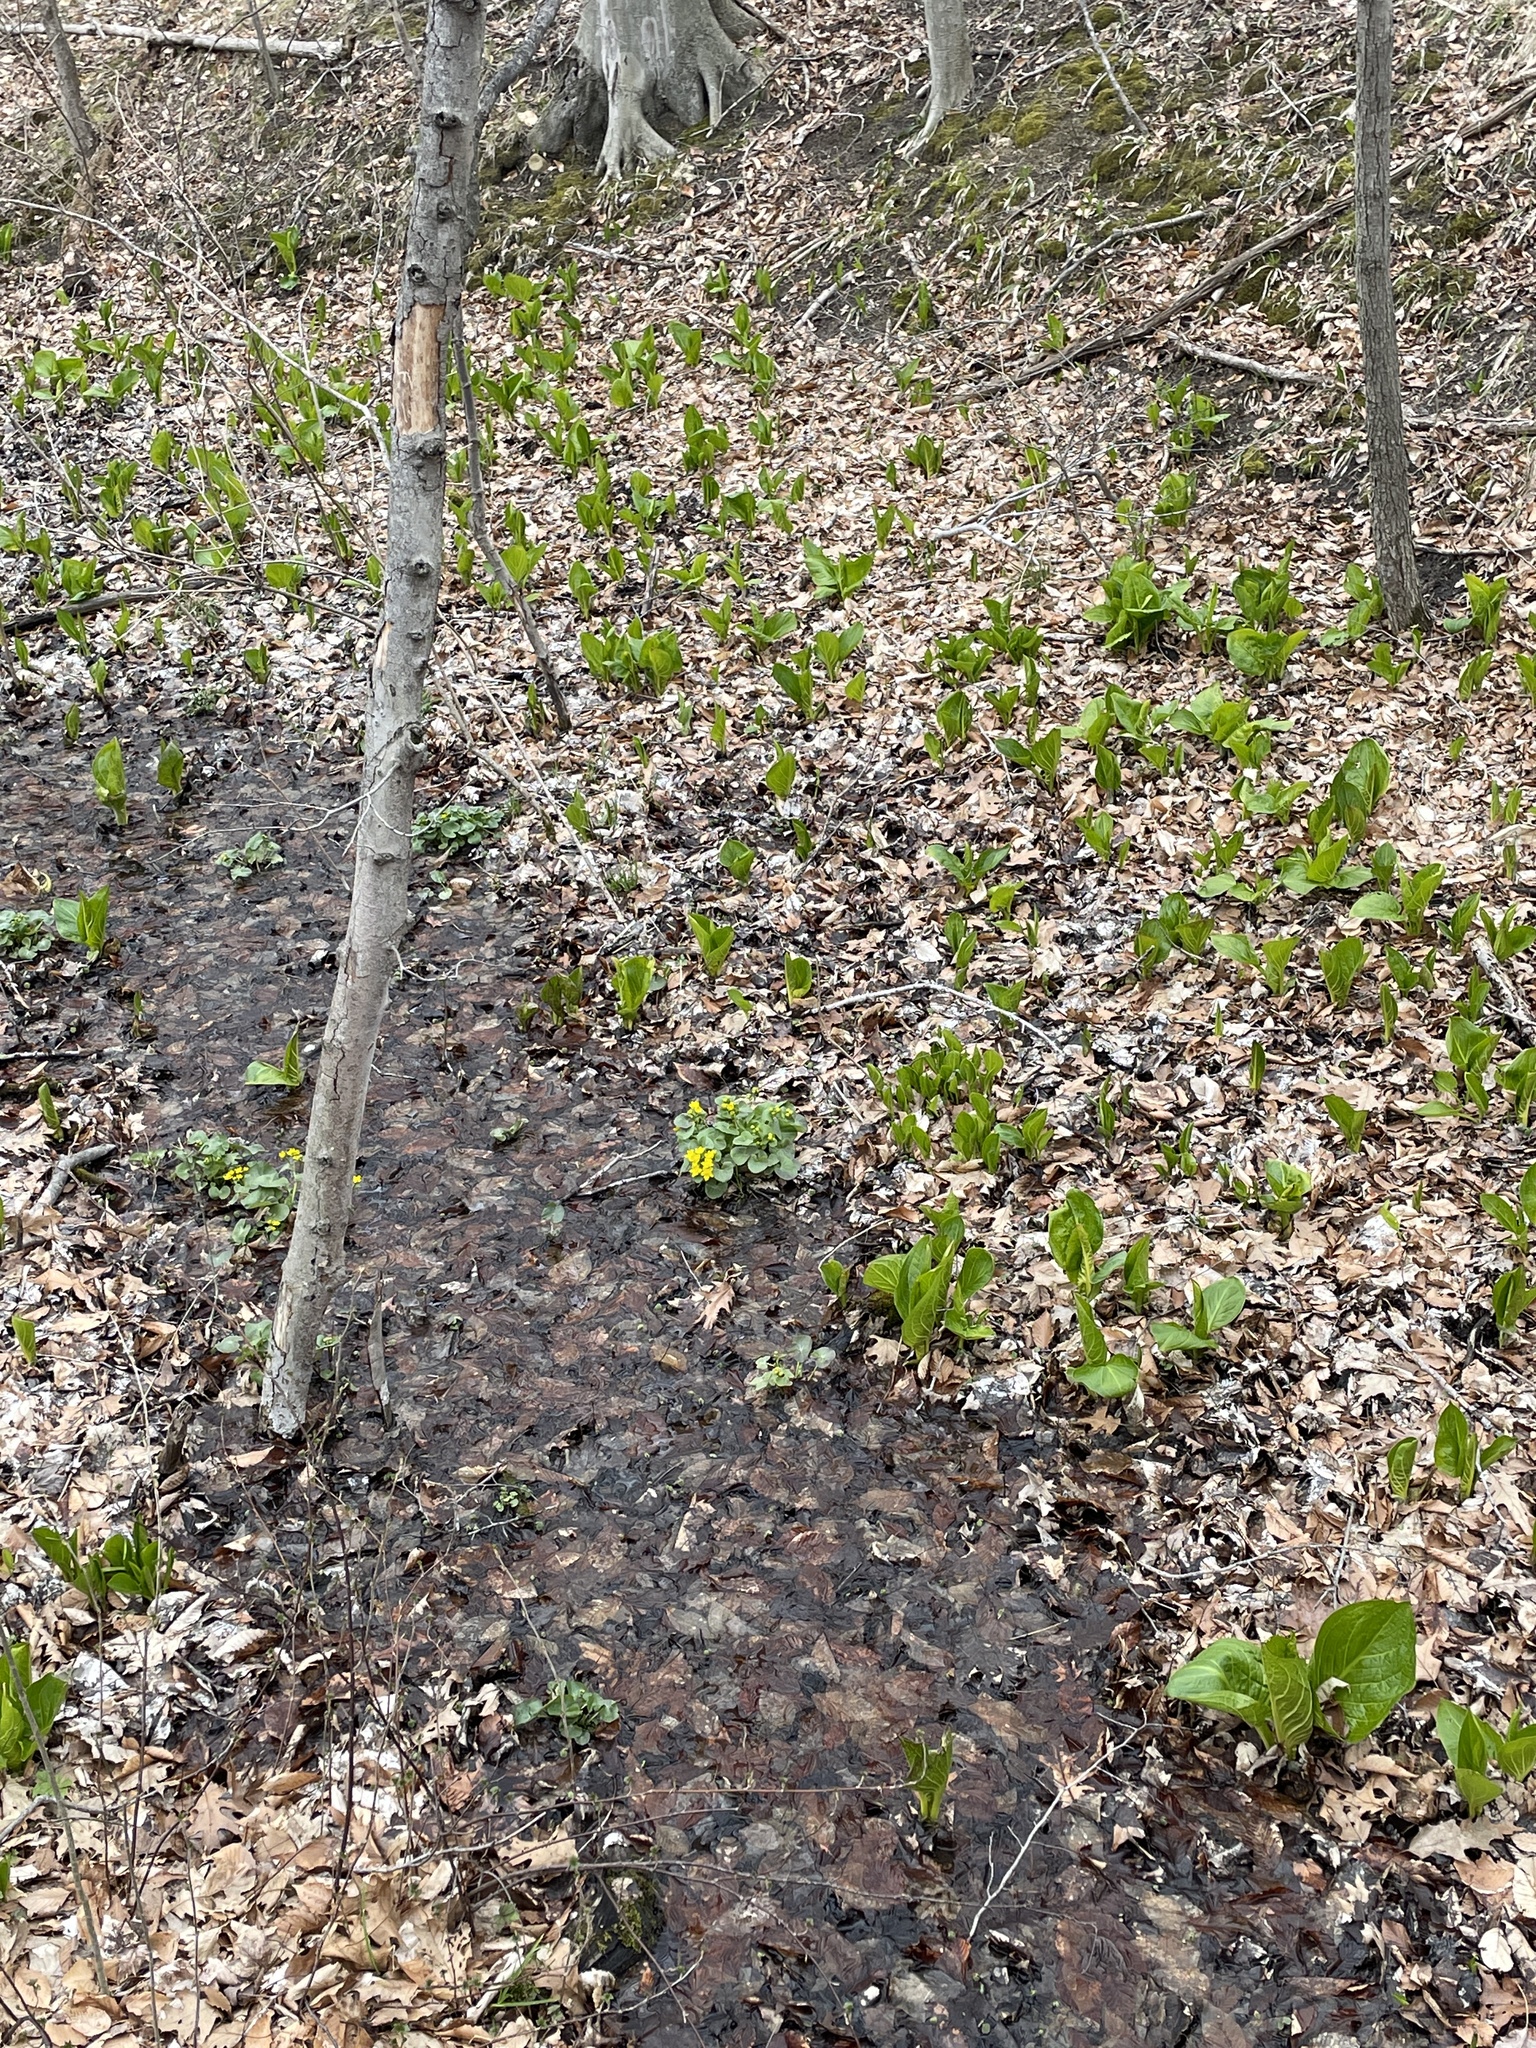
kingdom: Plantae
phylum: Tracheophyta
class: Magnoliopsida
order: Ranunculales
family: Ranunculaceae
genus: Caltha
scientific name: Caltha palustris
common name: Marsh marigold
